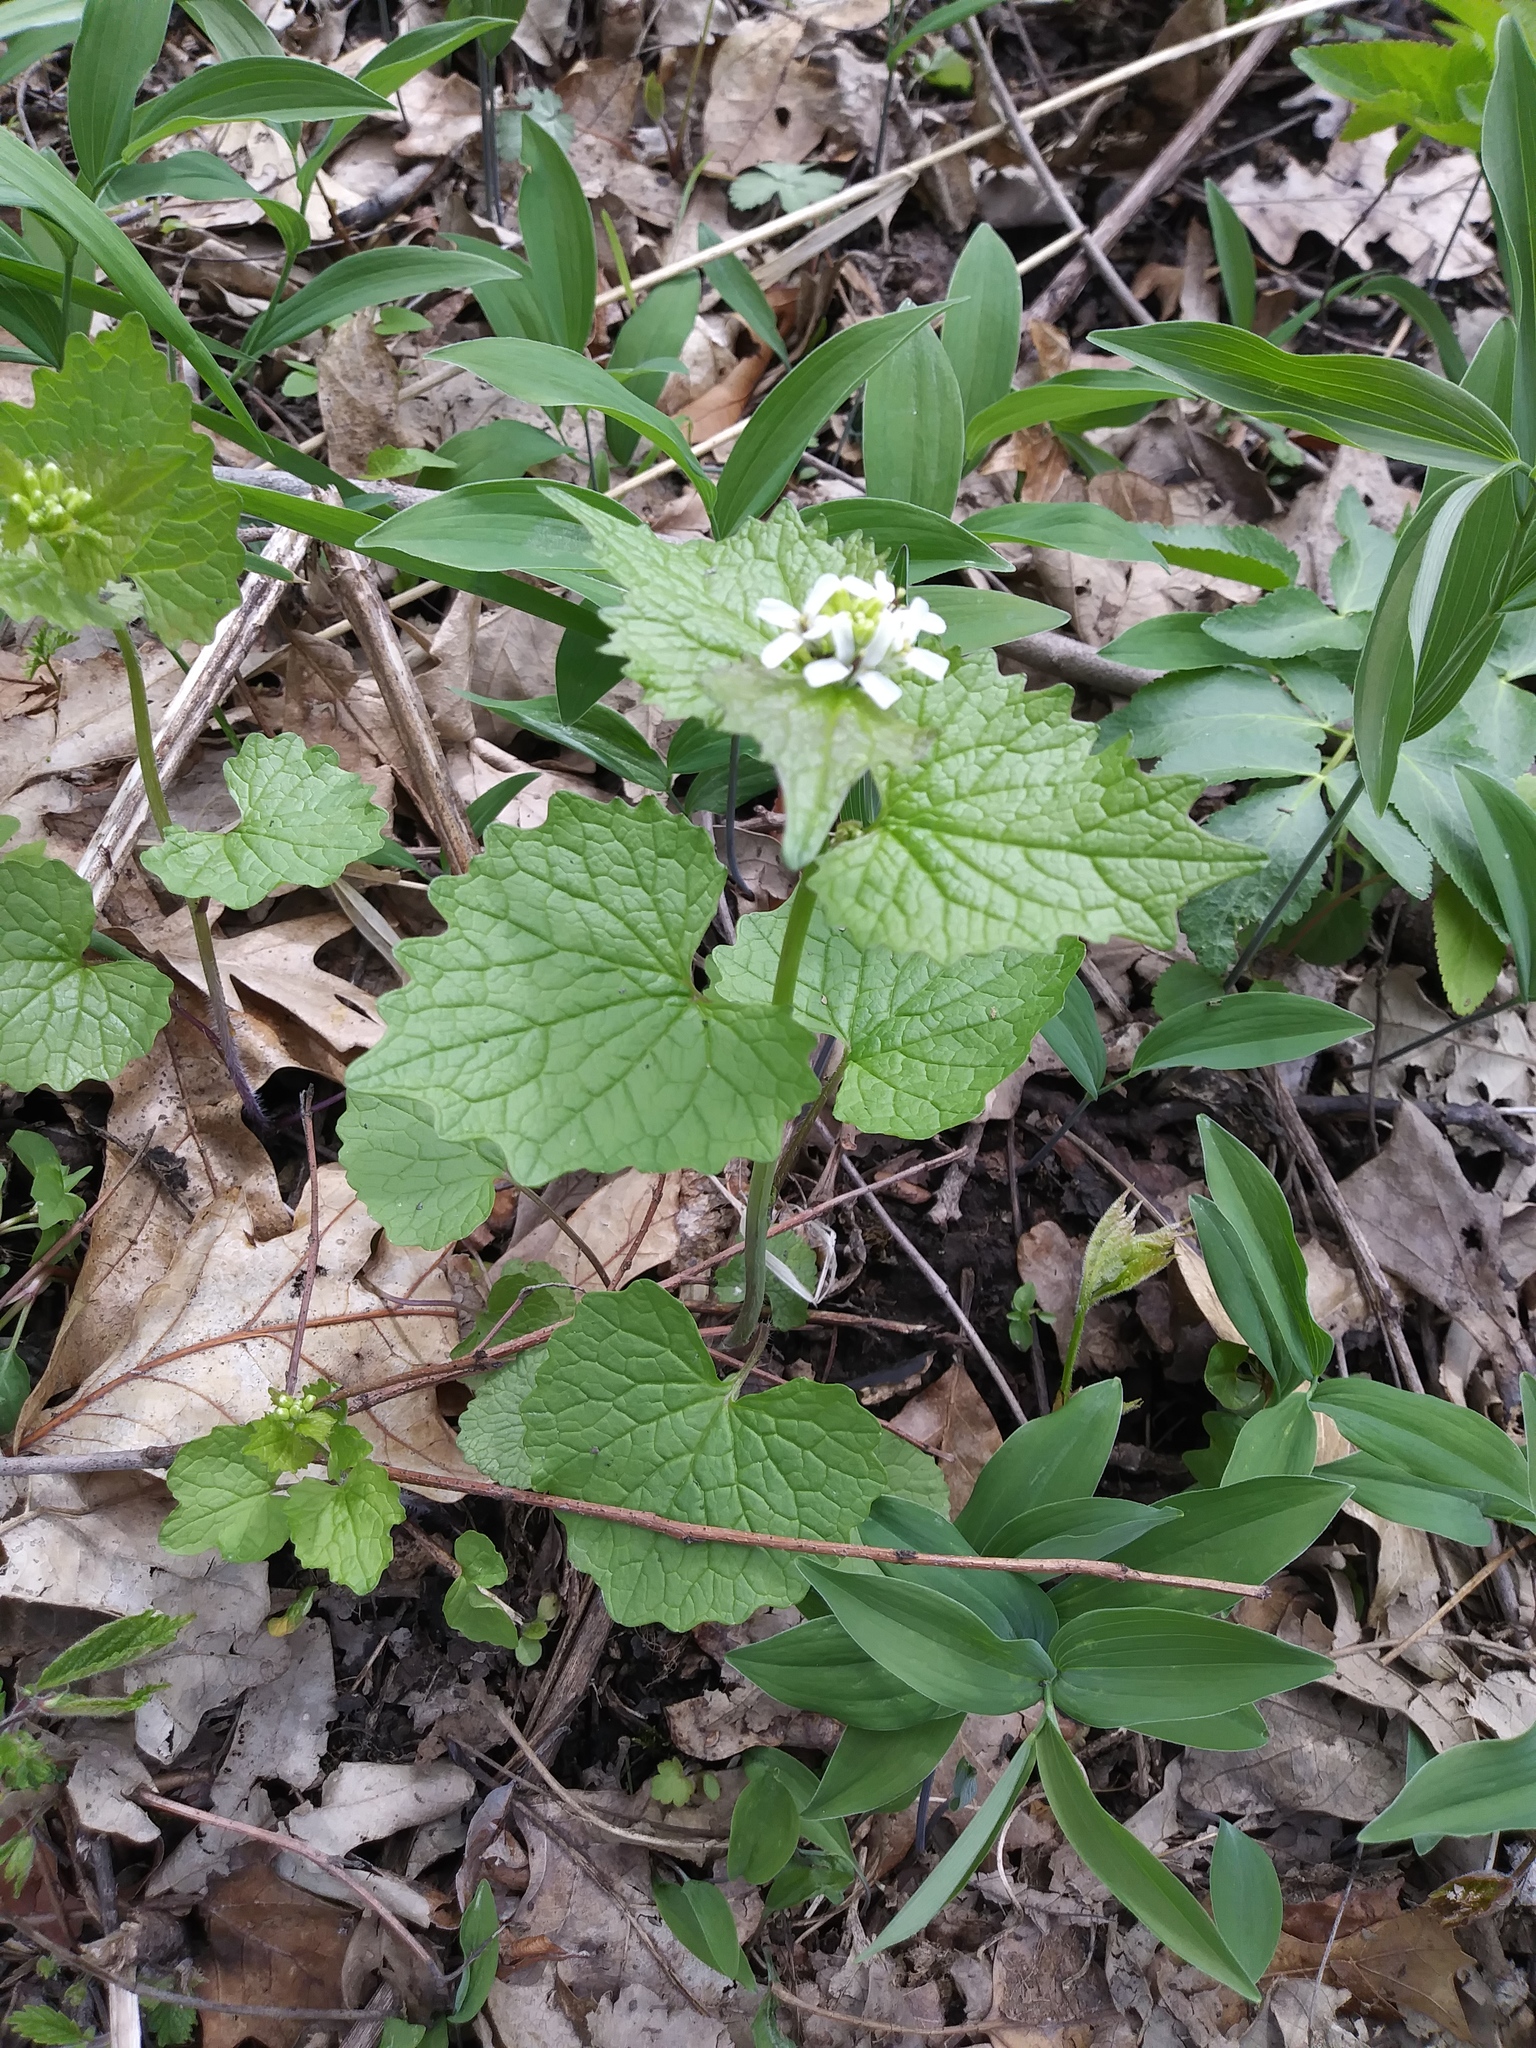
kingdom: Plantae
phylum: Tracheophyta
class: Magnoliopsida
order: Brassicales
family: Brassicaceae
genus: Alliaria
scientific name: Alliaria petiolata
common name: Garlic mustard
